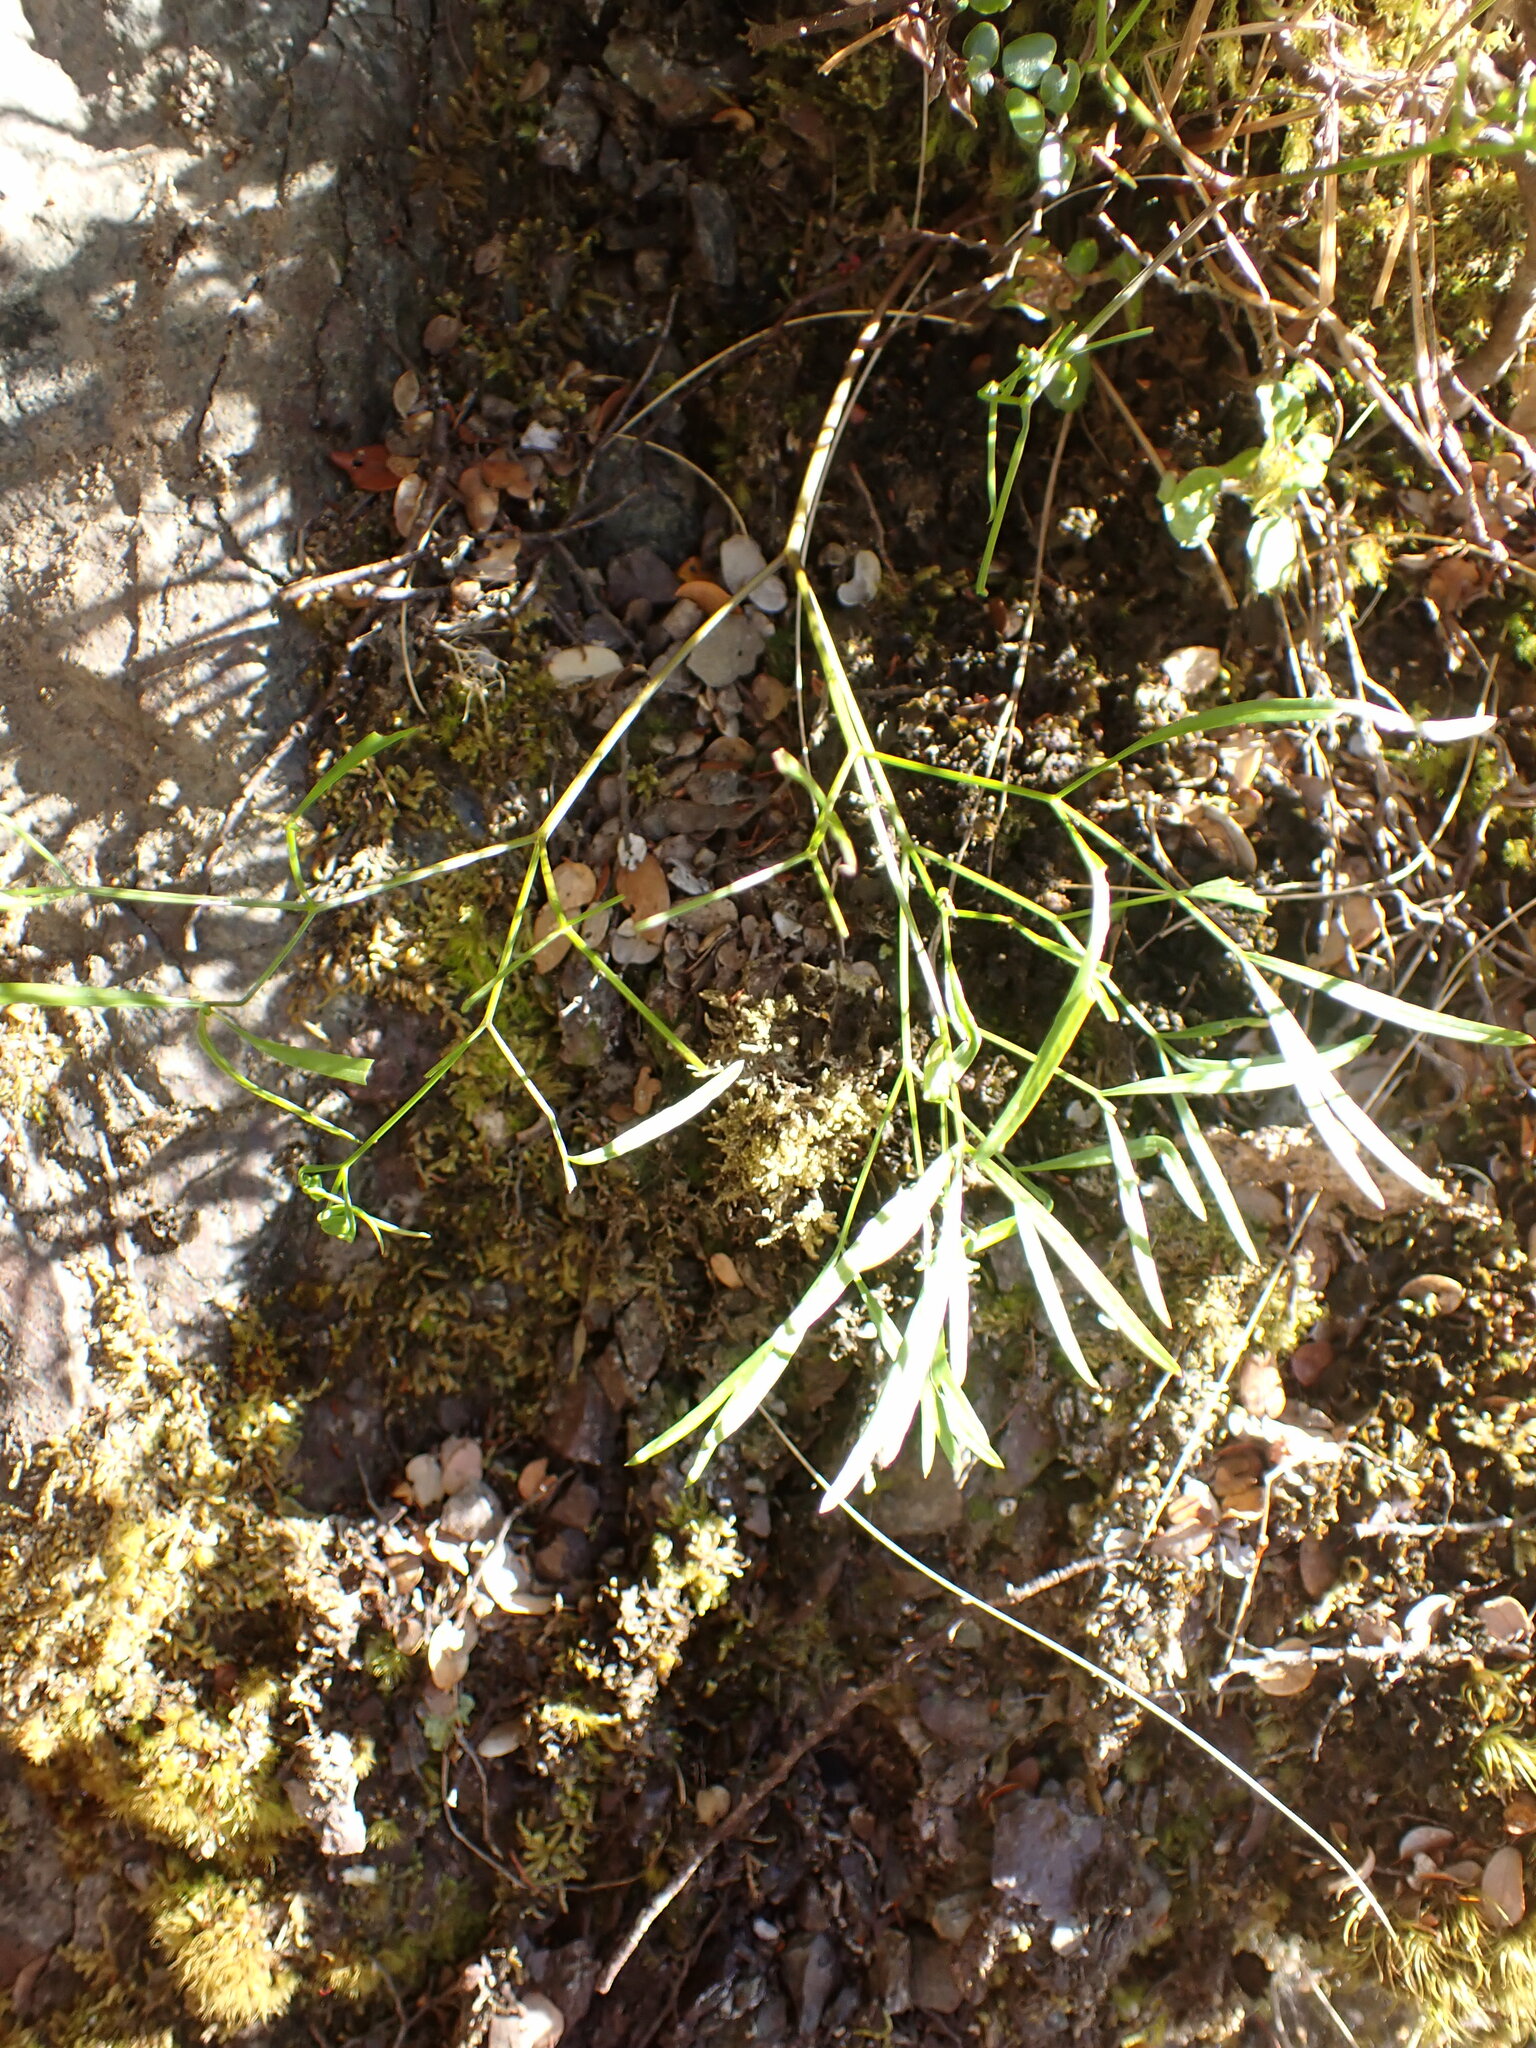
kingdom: Plantae
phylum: Tracheophyta
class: Magnoliopsida
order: Apiales
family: Apiaceae
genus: Anisotome
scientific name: Anisotome filifolia
